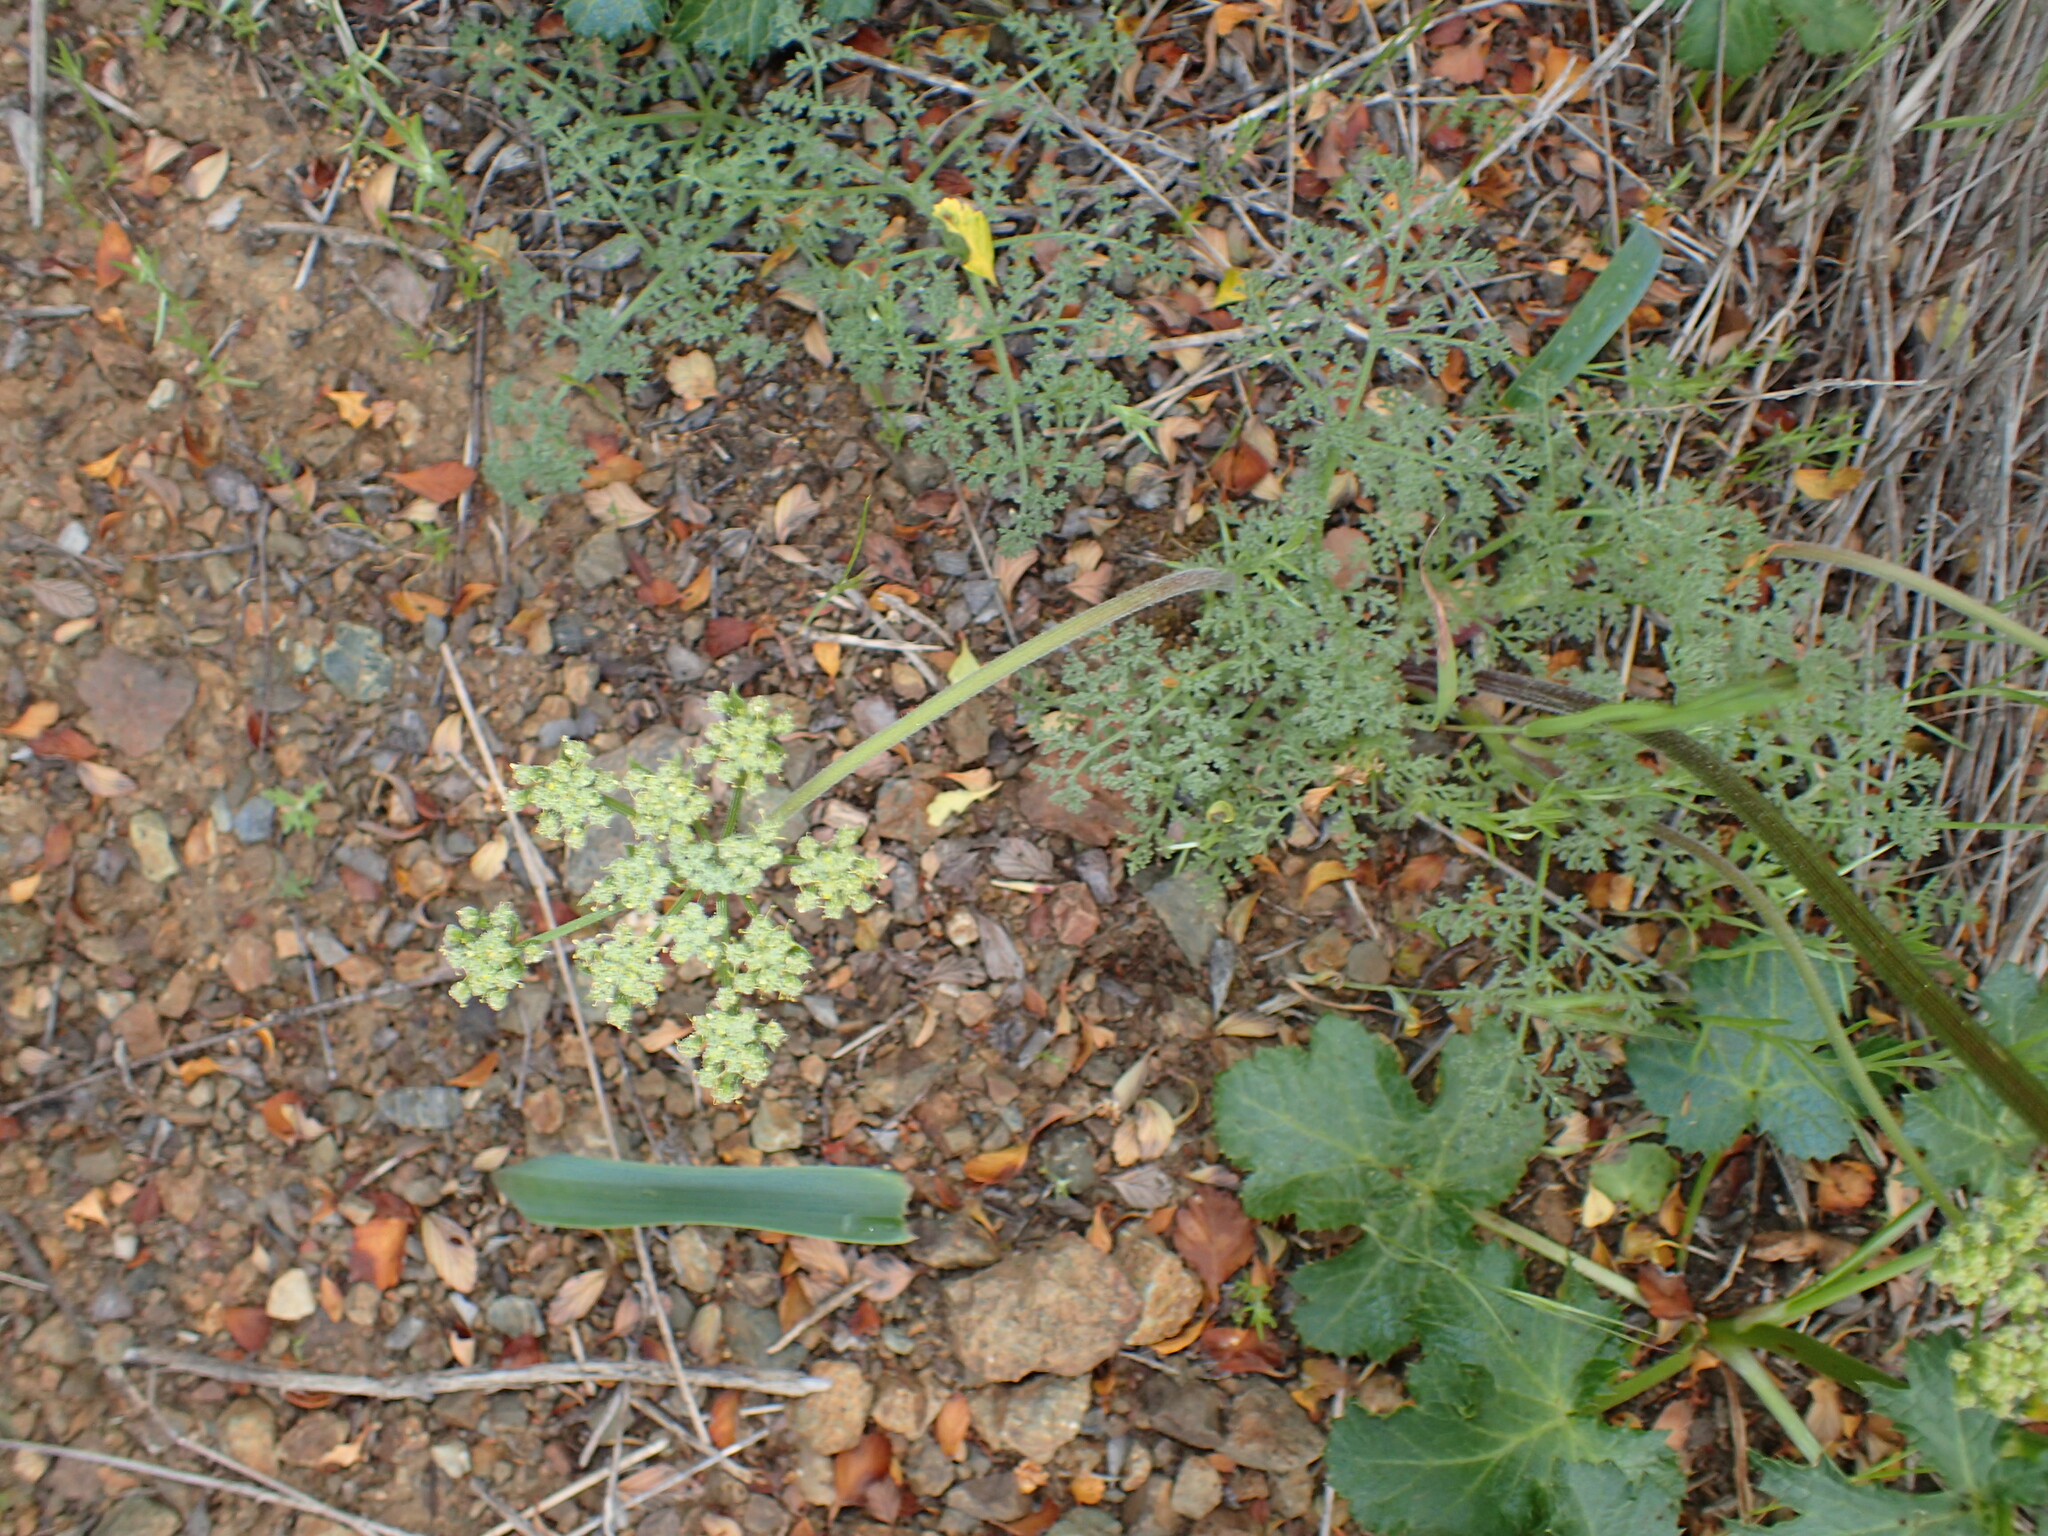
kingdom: Plantae
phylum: Tracheophyta
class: Magnoliopsida
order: Apiales
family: Apiaceae
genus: Lomatium
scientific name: Lomatium dasycarpum
